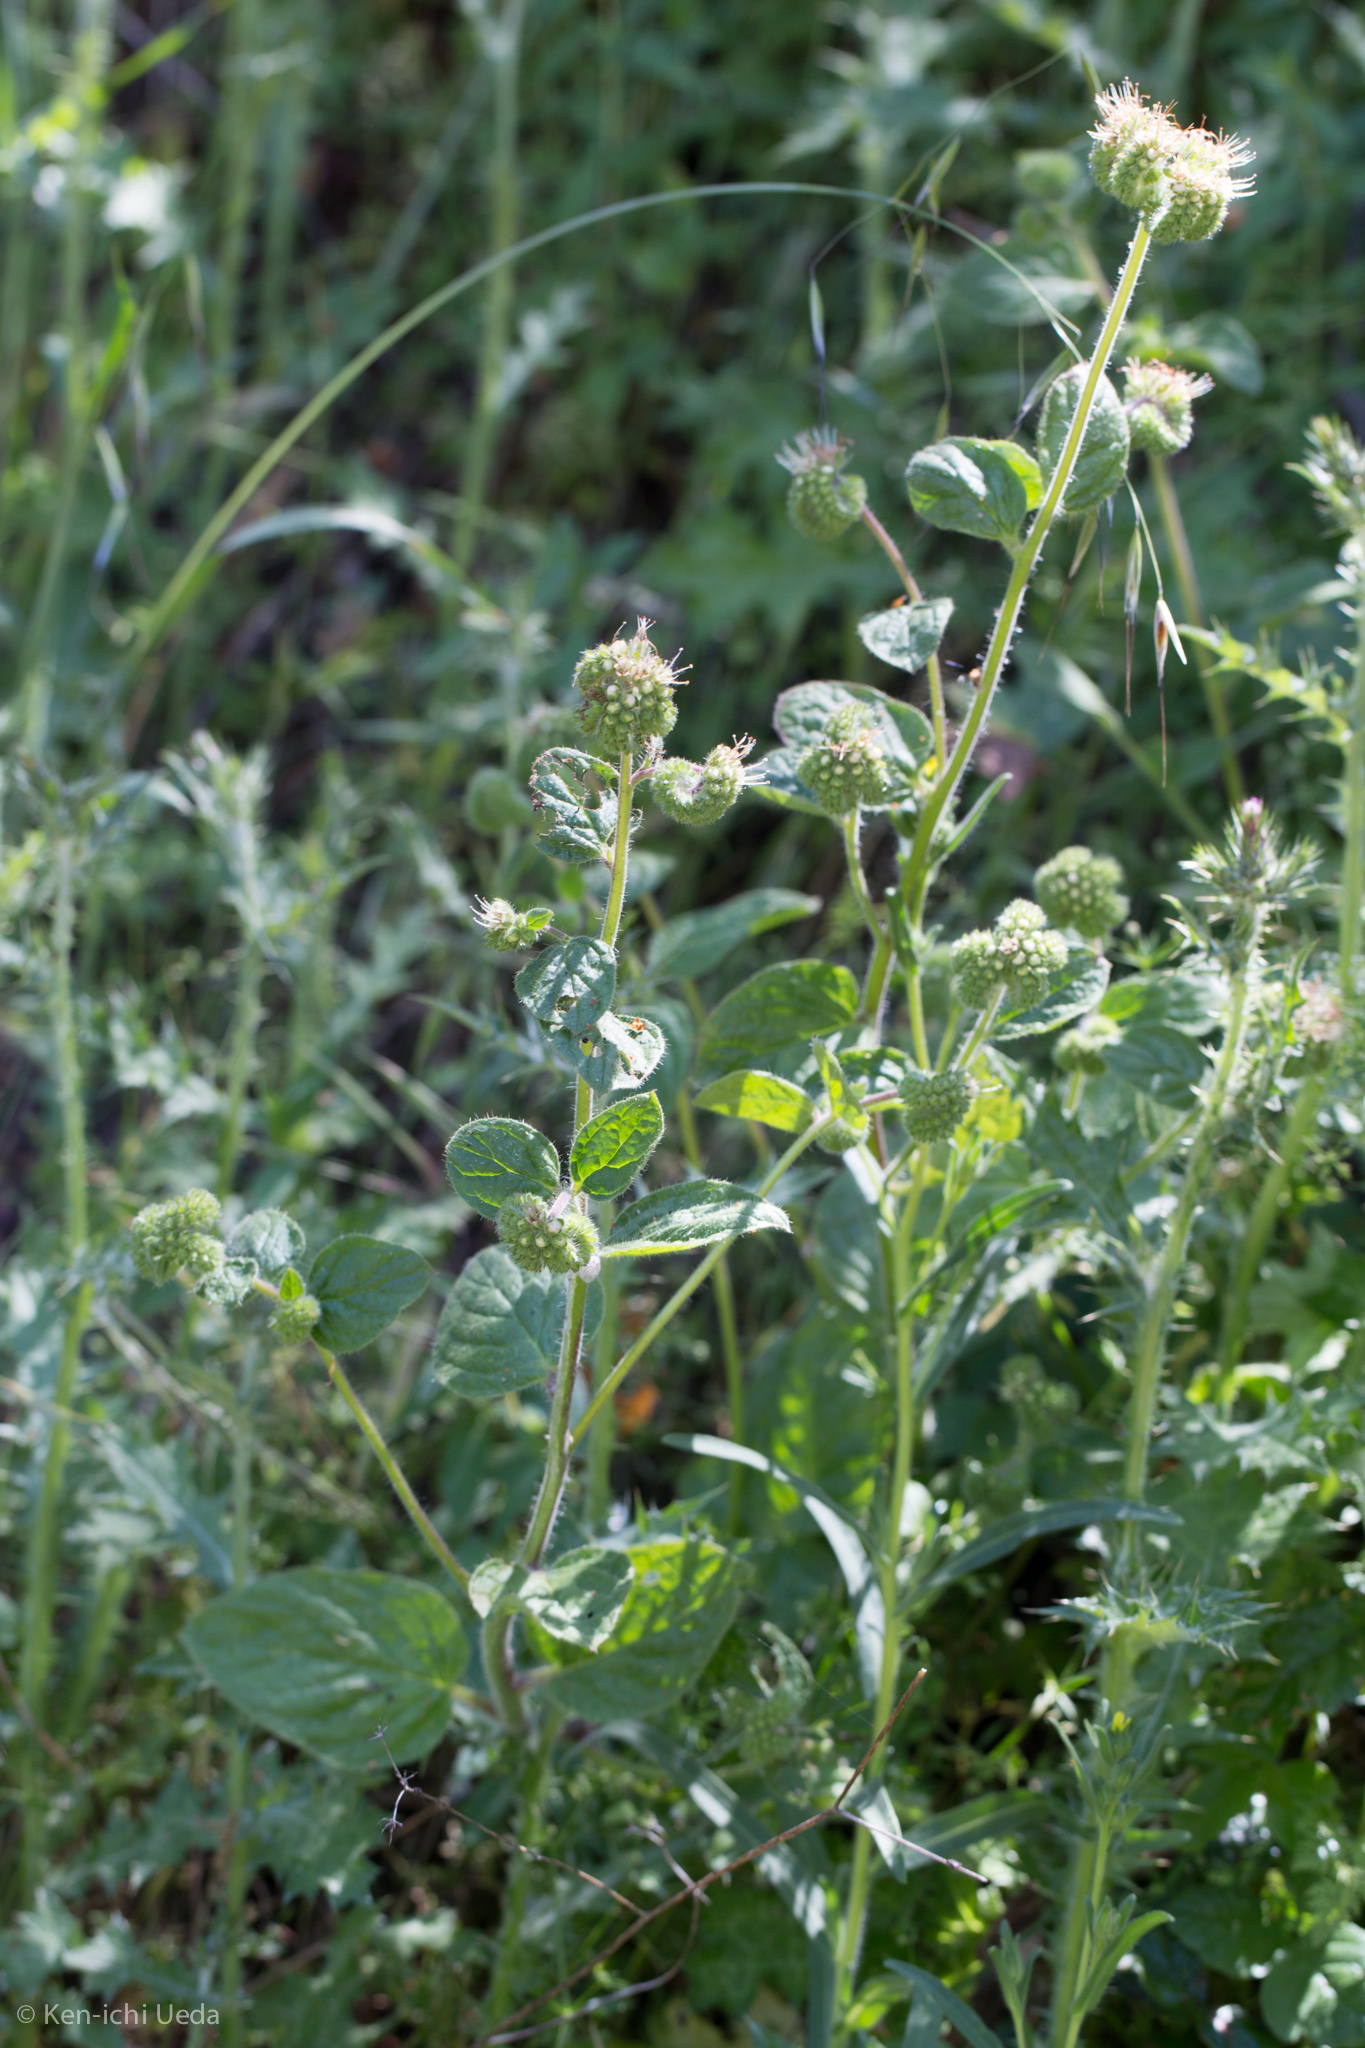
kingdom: Plantae
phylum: Tracheophyta
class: Magnoliopsida
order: Boraginales
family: Hydrophyllaceae
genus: Phacelia
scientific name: Phacelia nemoralis
